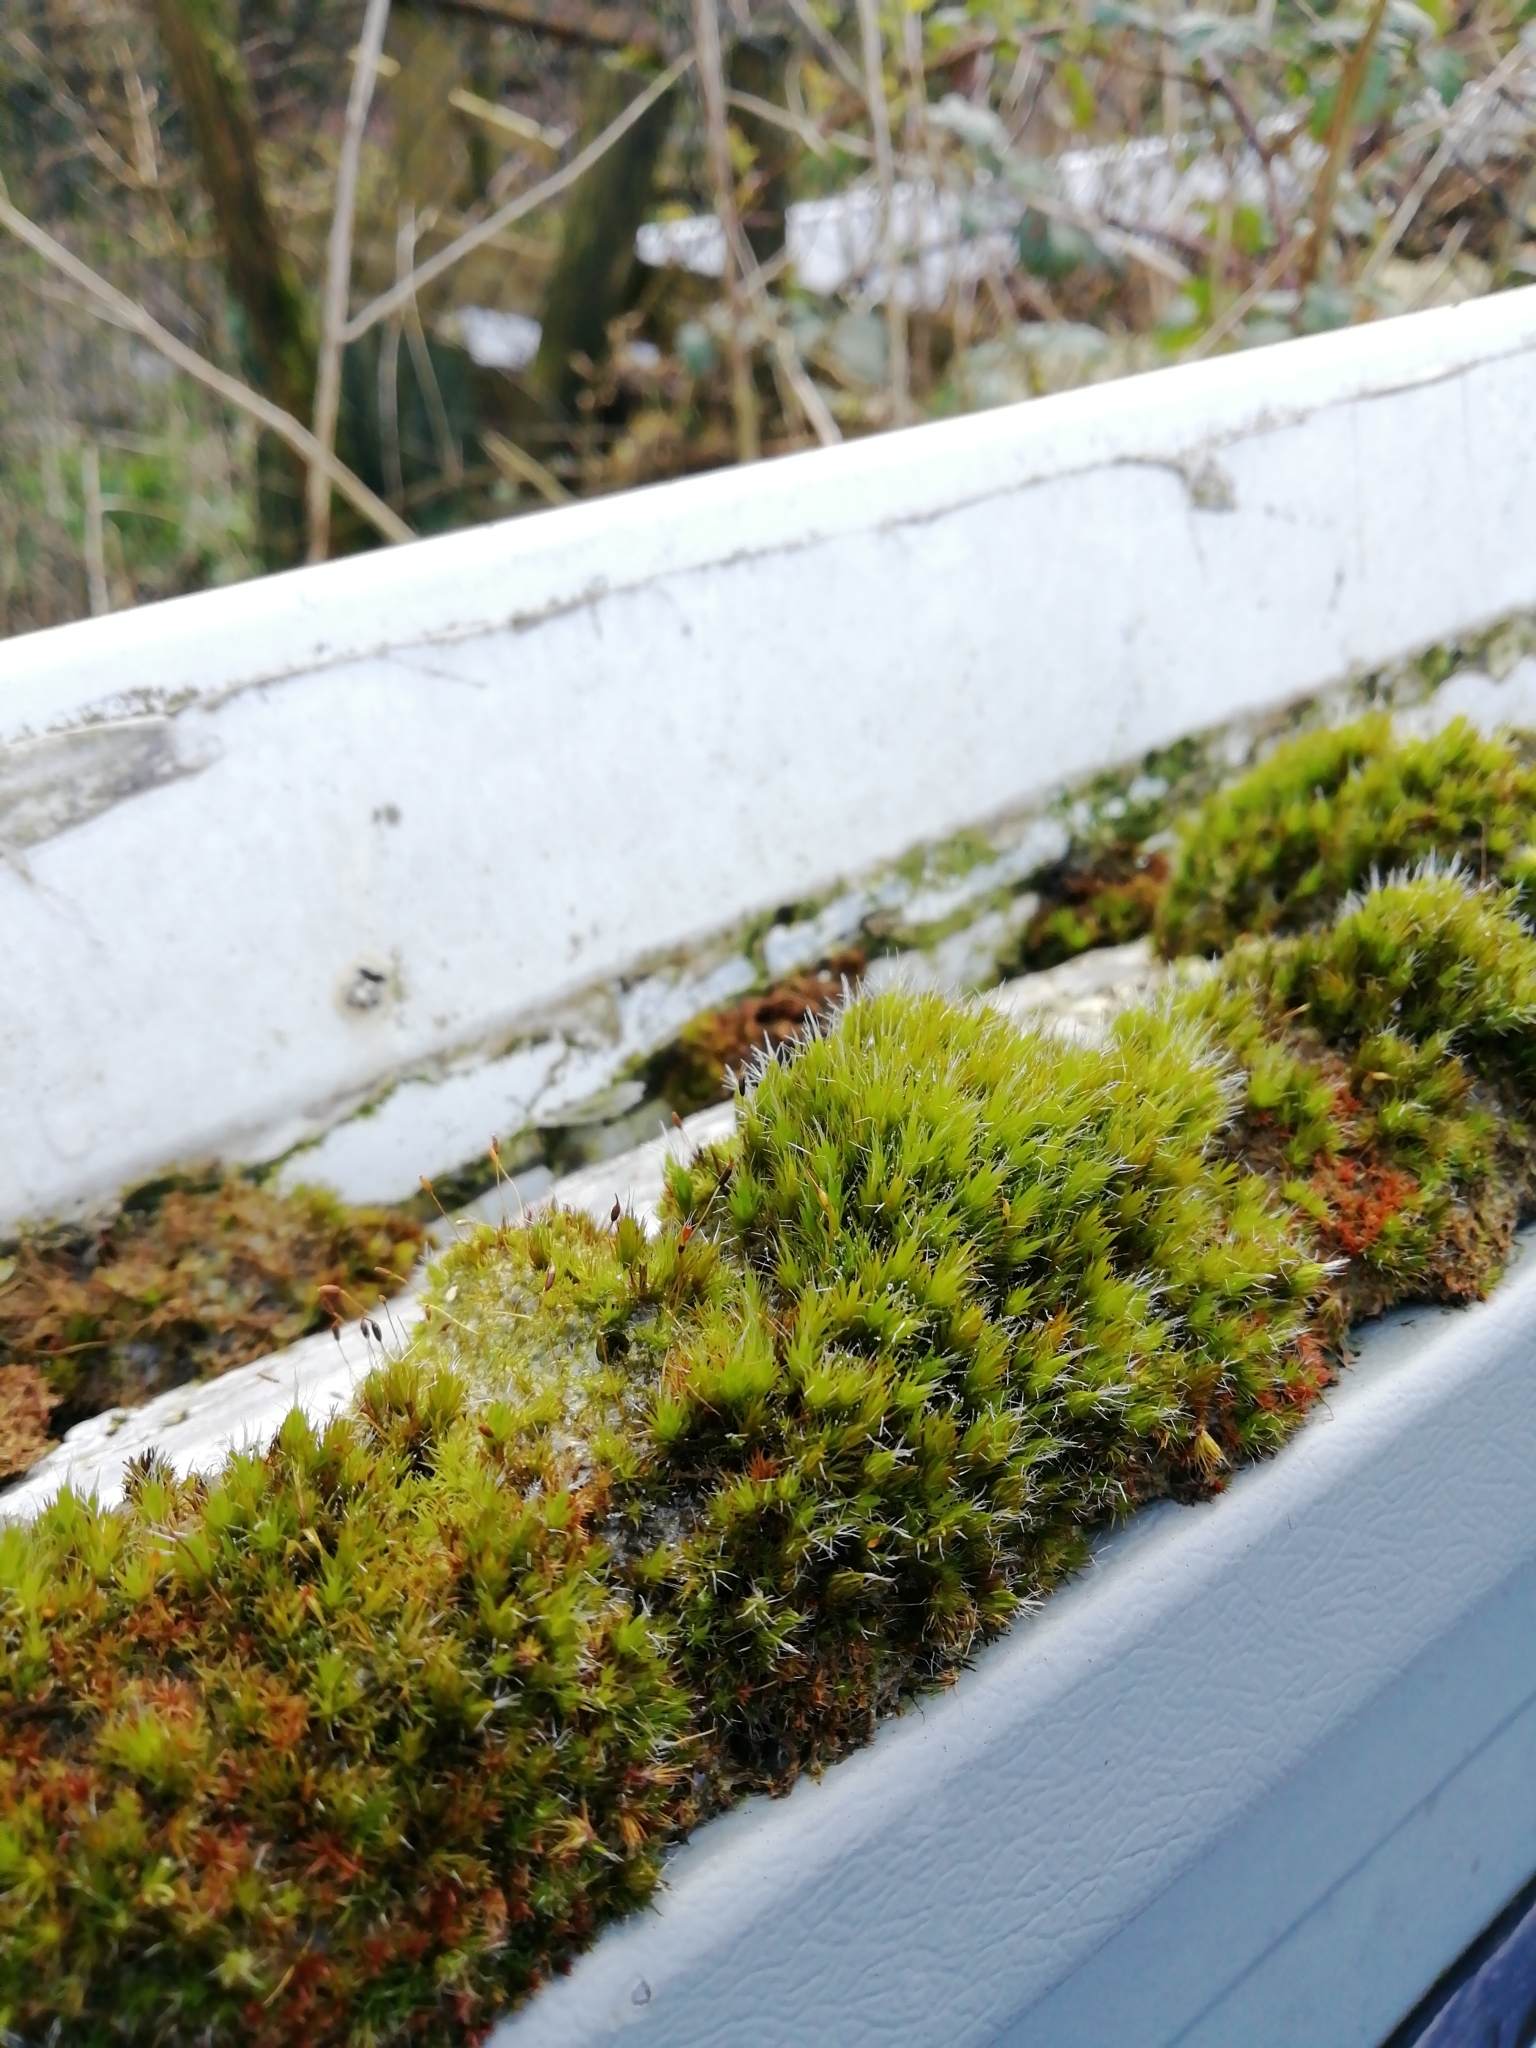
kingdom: Plantae
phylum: Bryophyta
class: Bryopsida
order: Dicranales
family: Leucobryaceae
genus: Campylopus
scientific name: Campylopus introflexus
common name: Heath star moss
